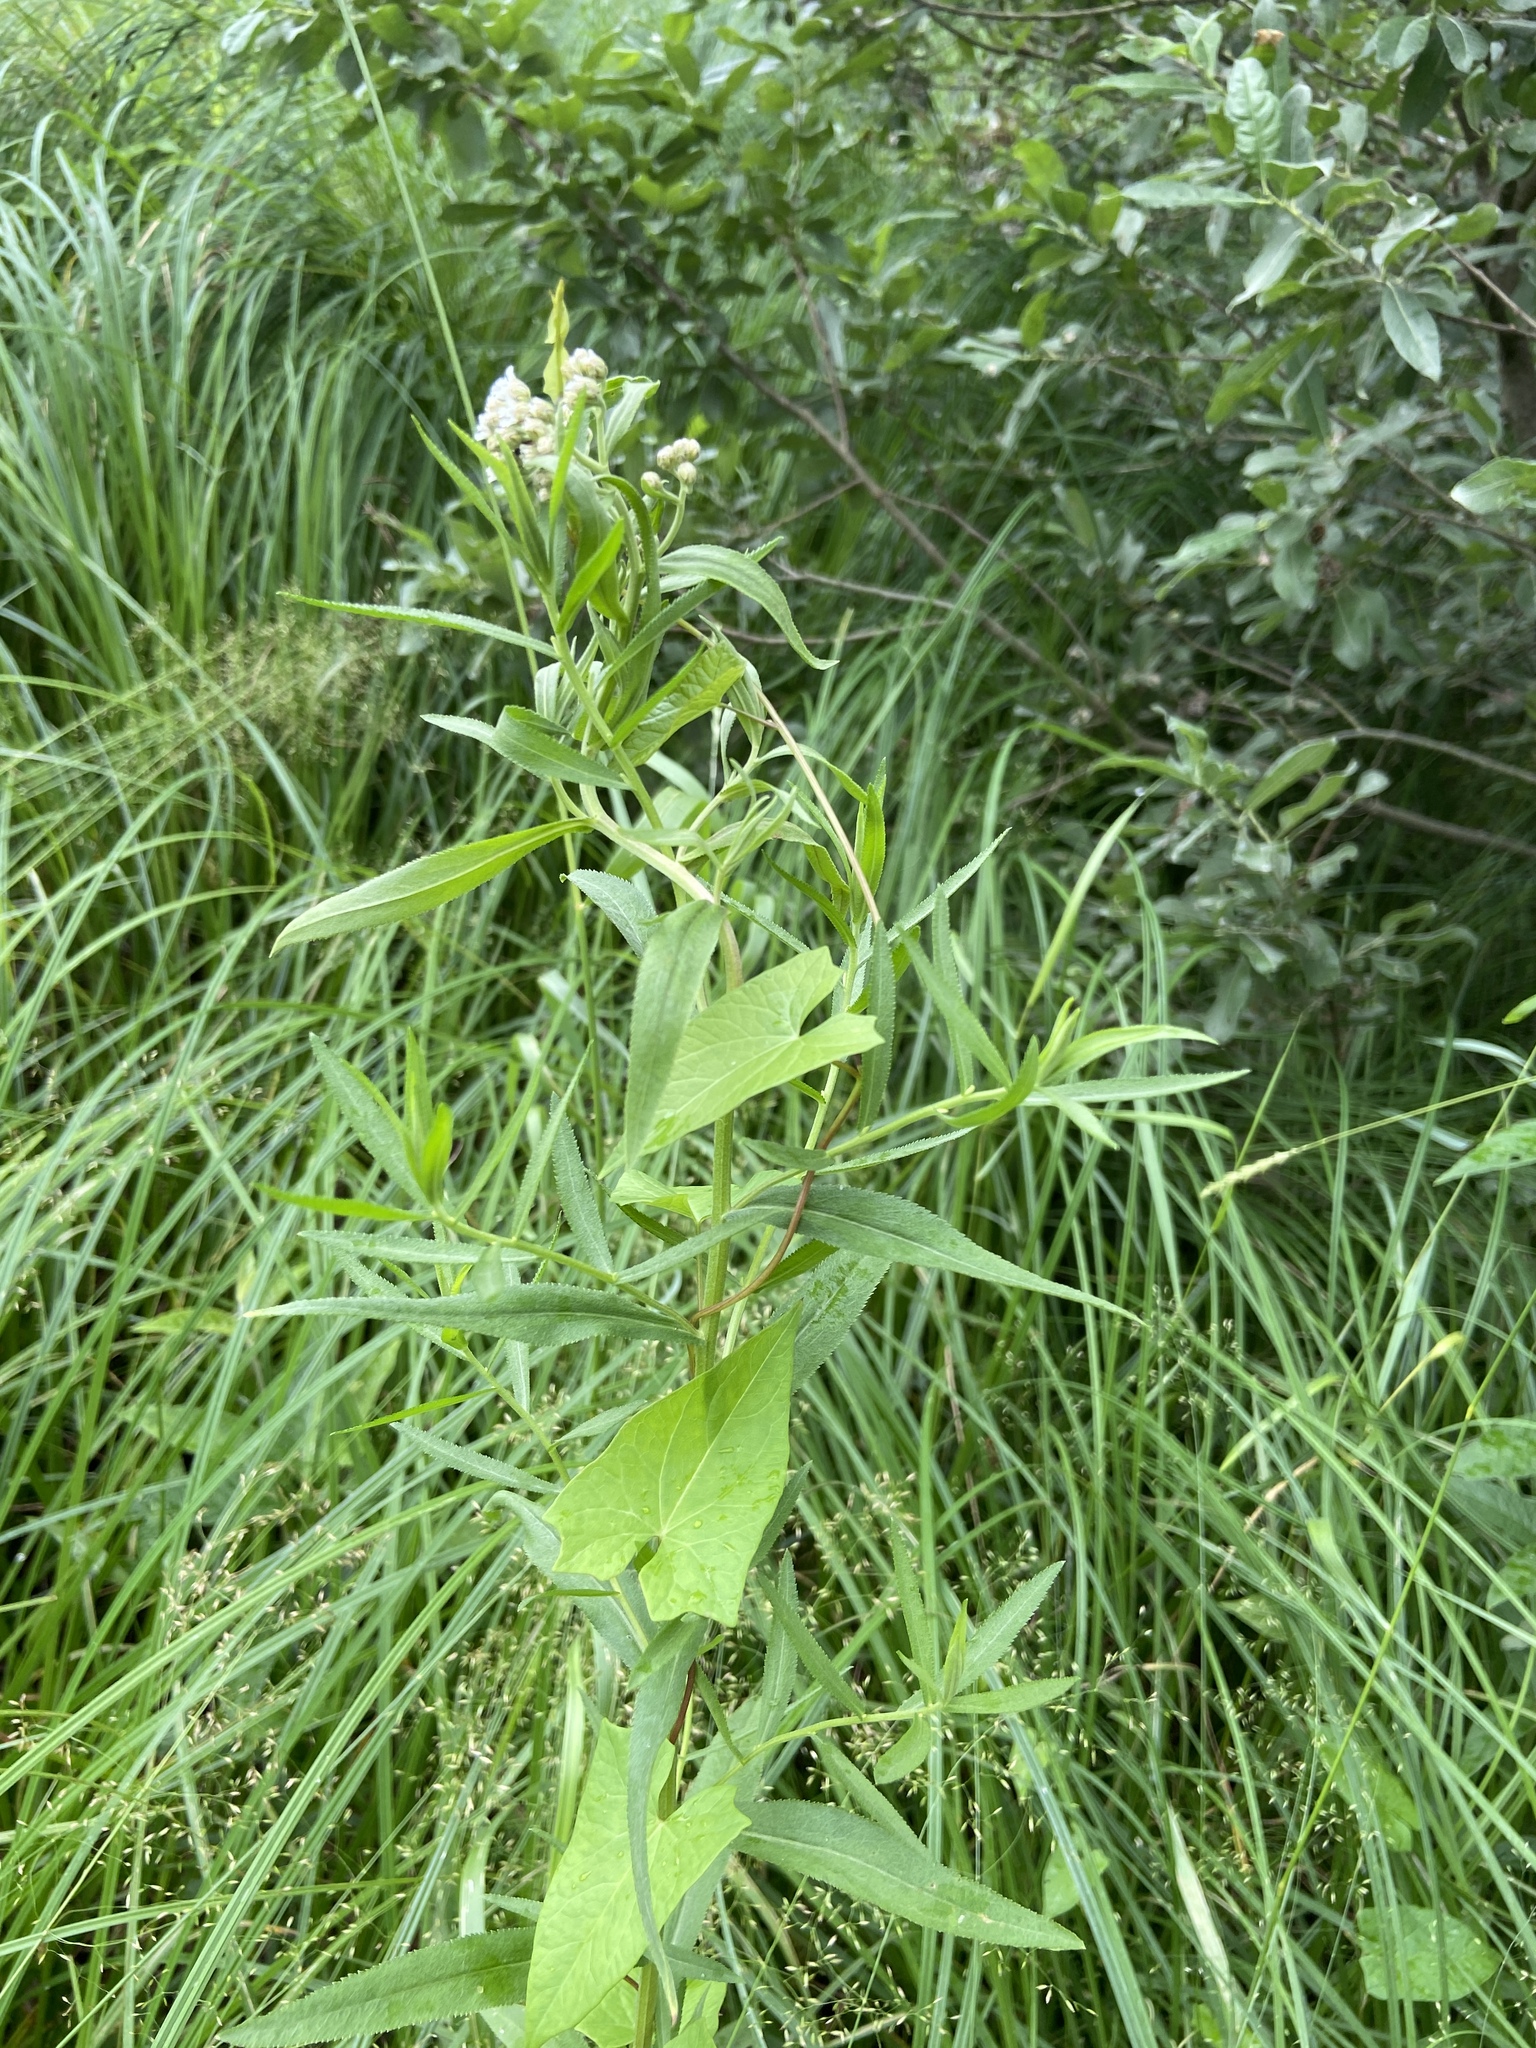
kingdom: Plantae
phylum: Tracheophyta
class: Magnoliopsida
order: Solanales
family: Convolvulaceae
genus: Calystegia
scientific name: Calystegia sepium
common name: Hedge bindweed
